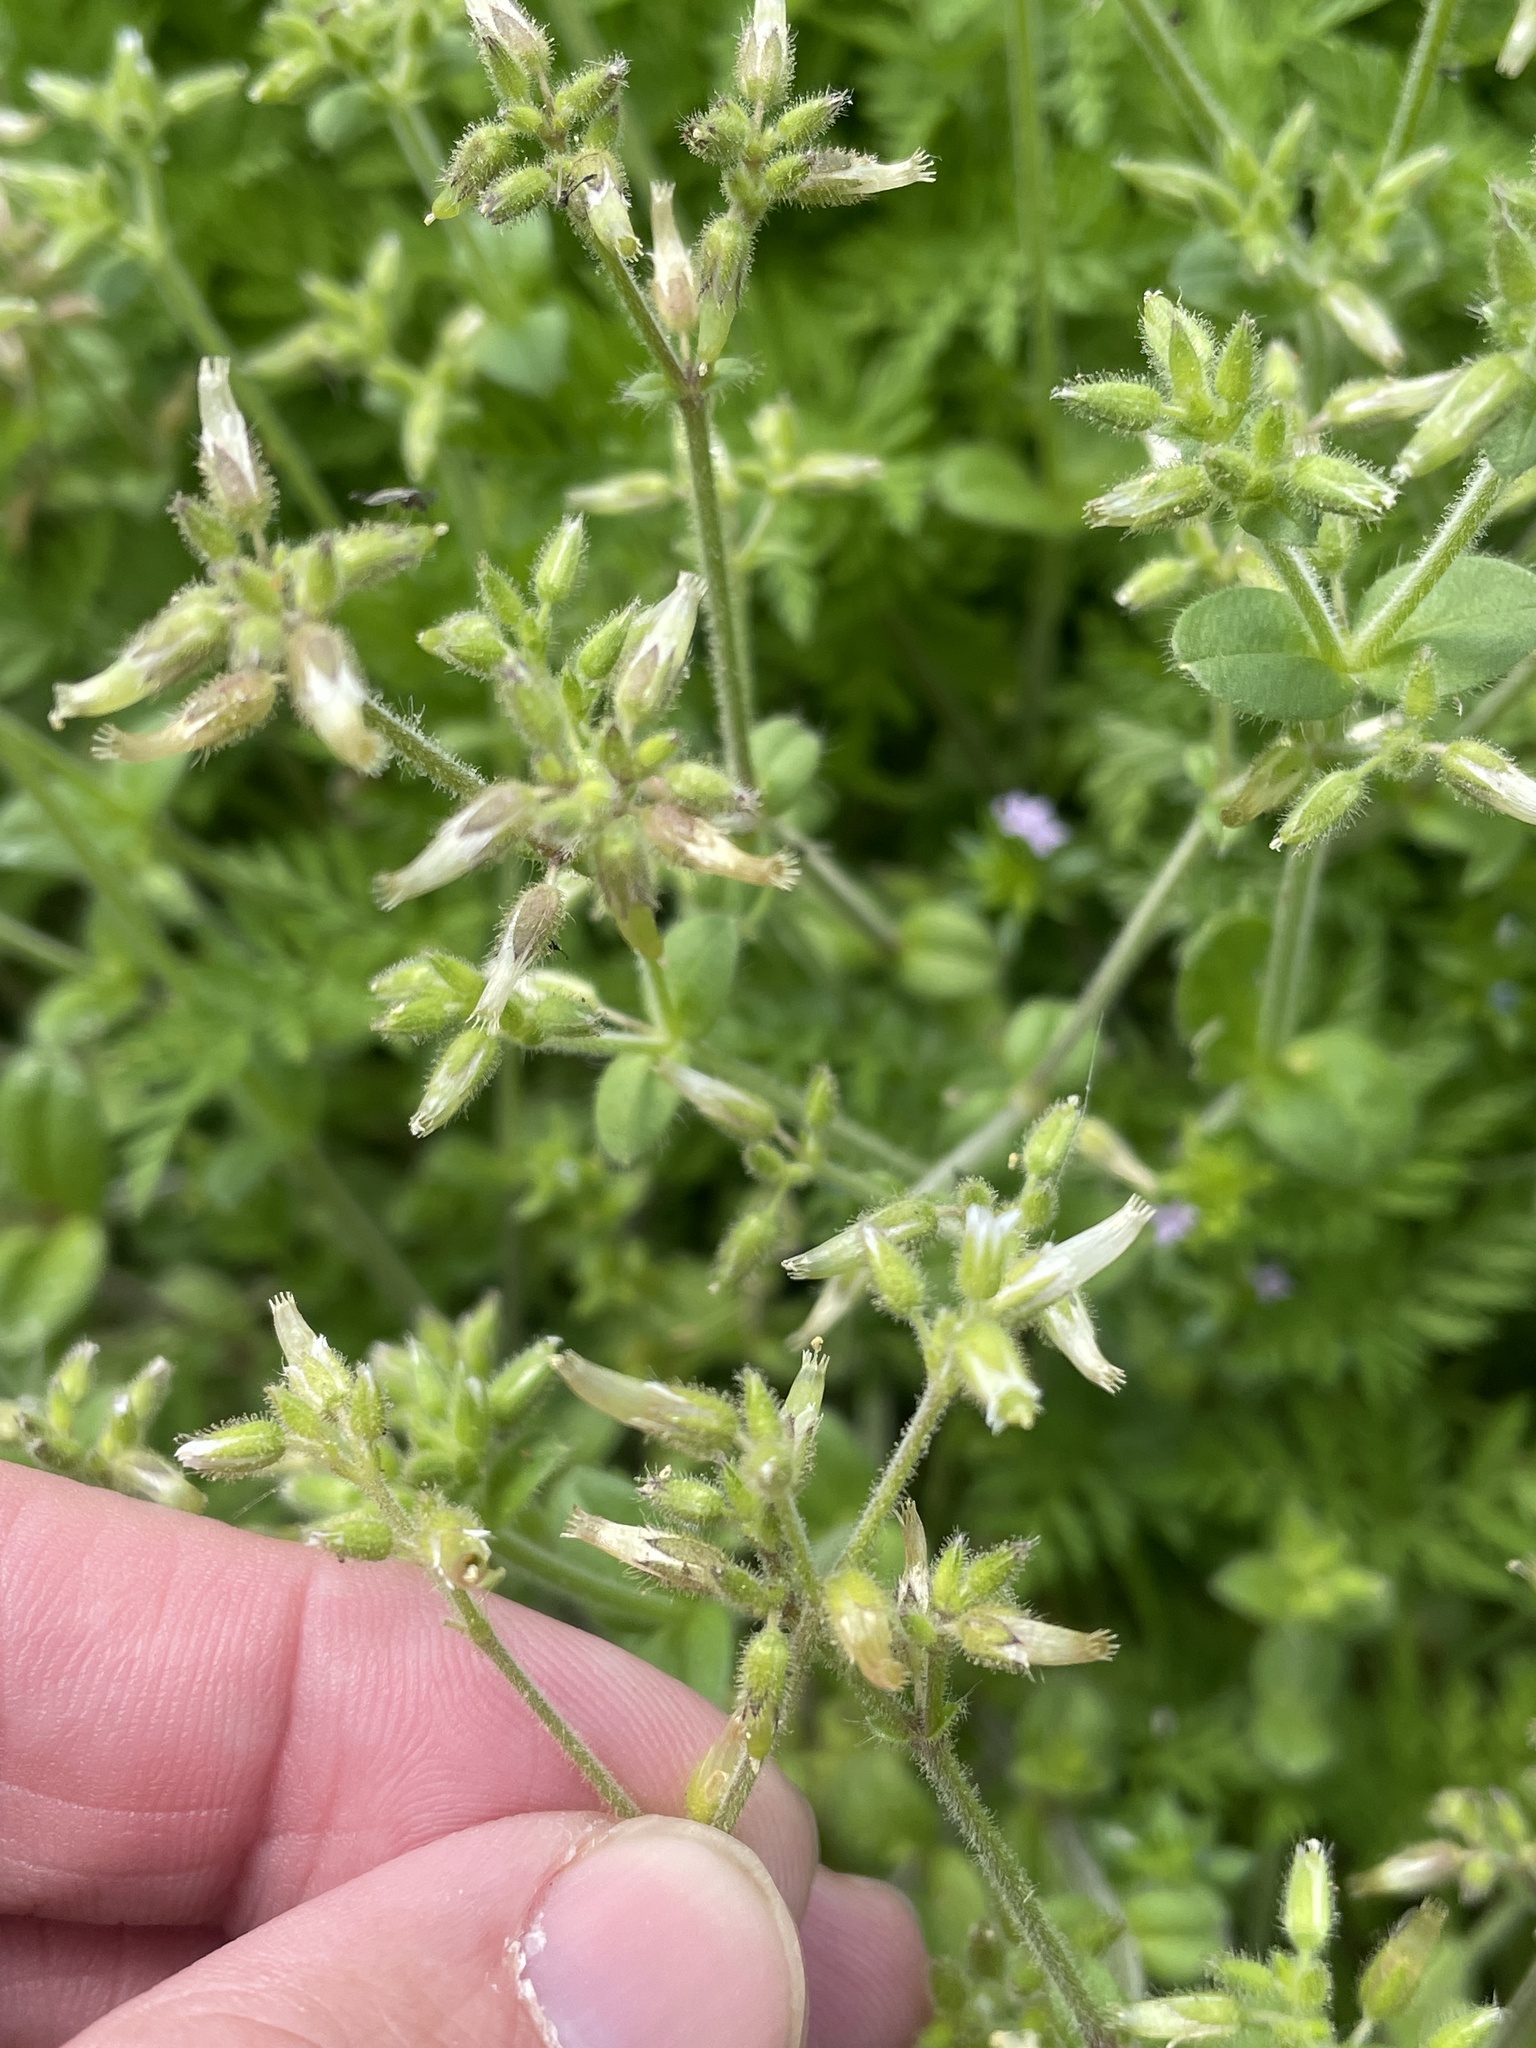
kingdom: Plantae
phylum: Tracheophyta
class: Magnoliopsida
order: Caryophyllales
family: Caryophyllaceae
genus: Cerastium
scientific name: Cerastium glomeratum
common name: Sticky chickweed
